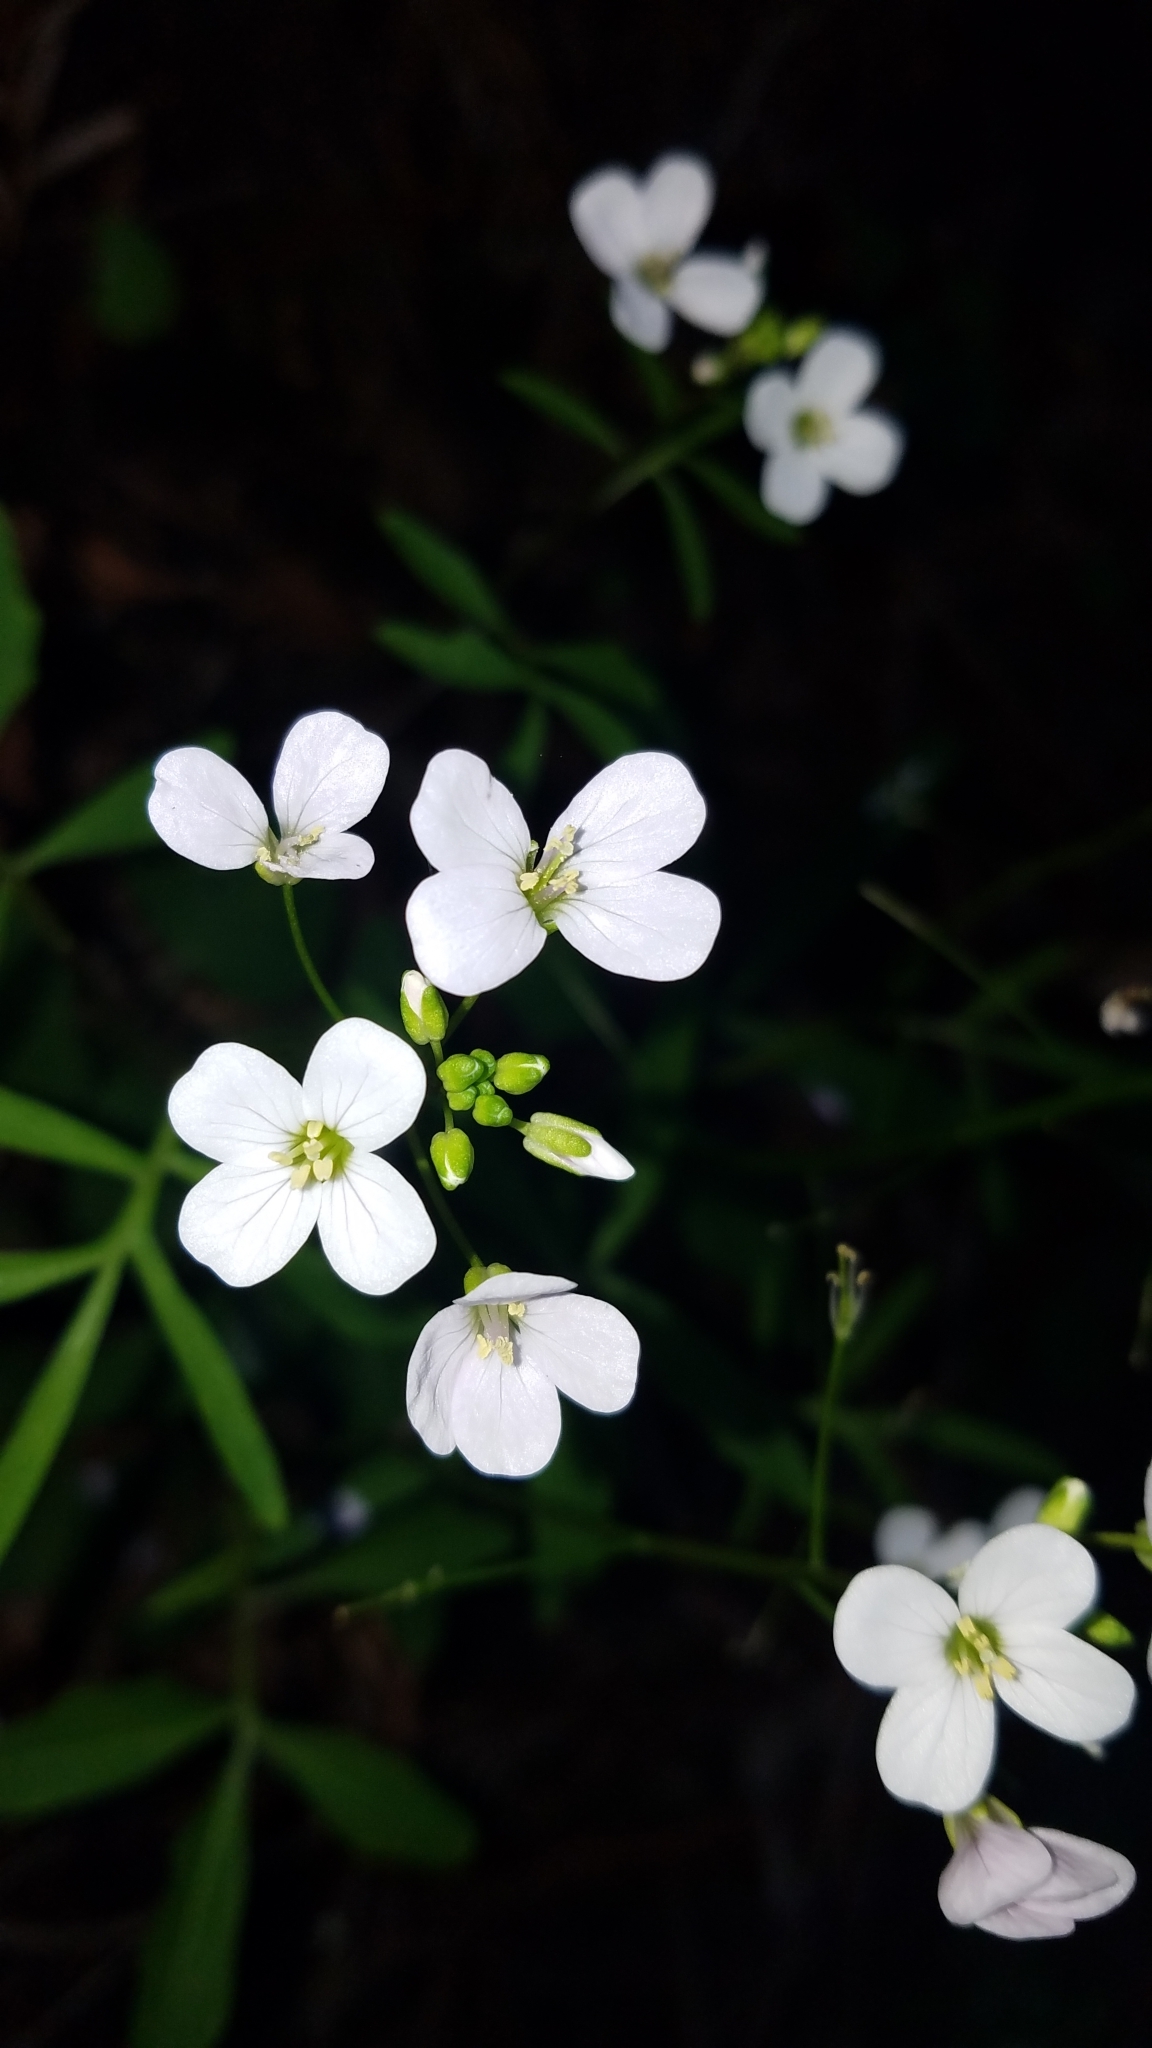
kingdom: Plantae
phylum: Tracheophyta
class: Magnoliopsida
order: Brassicales
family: Brassicaceae
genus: Cardamine
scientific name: Cardamine californica
